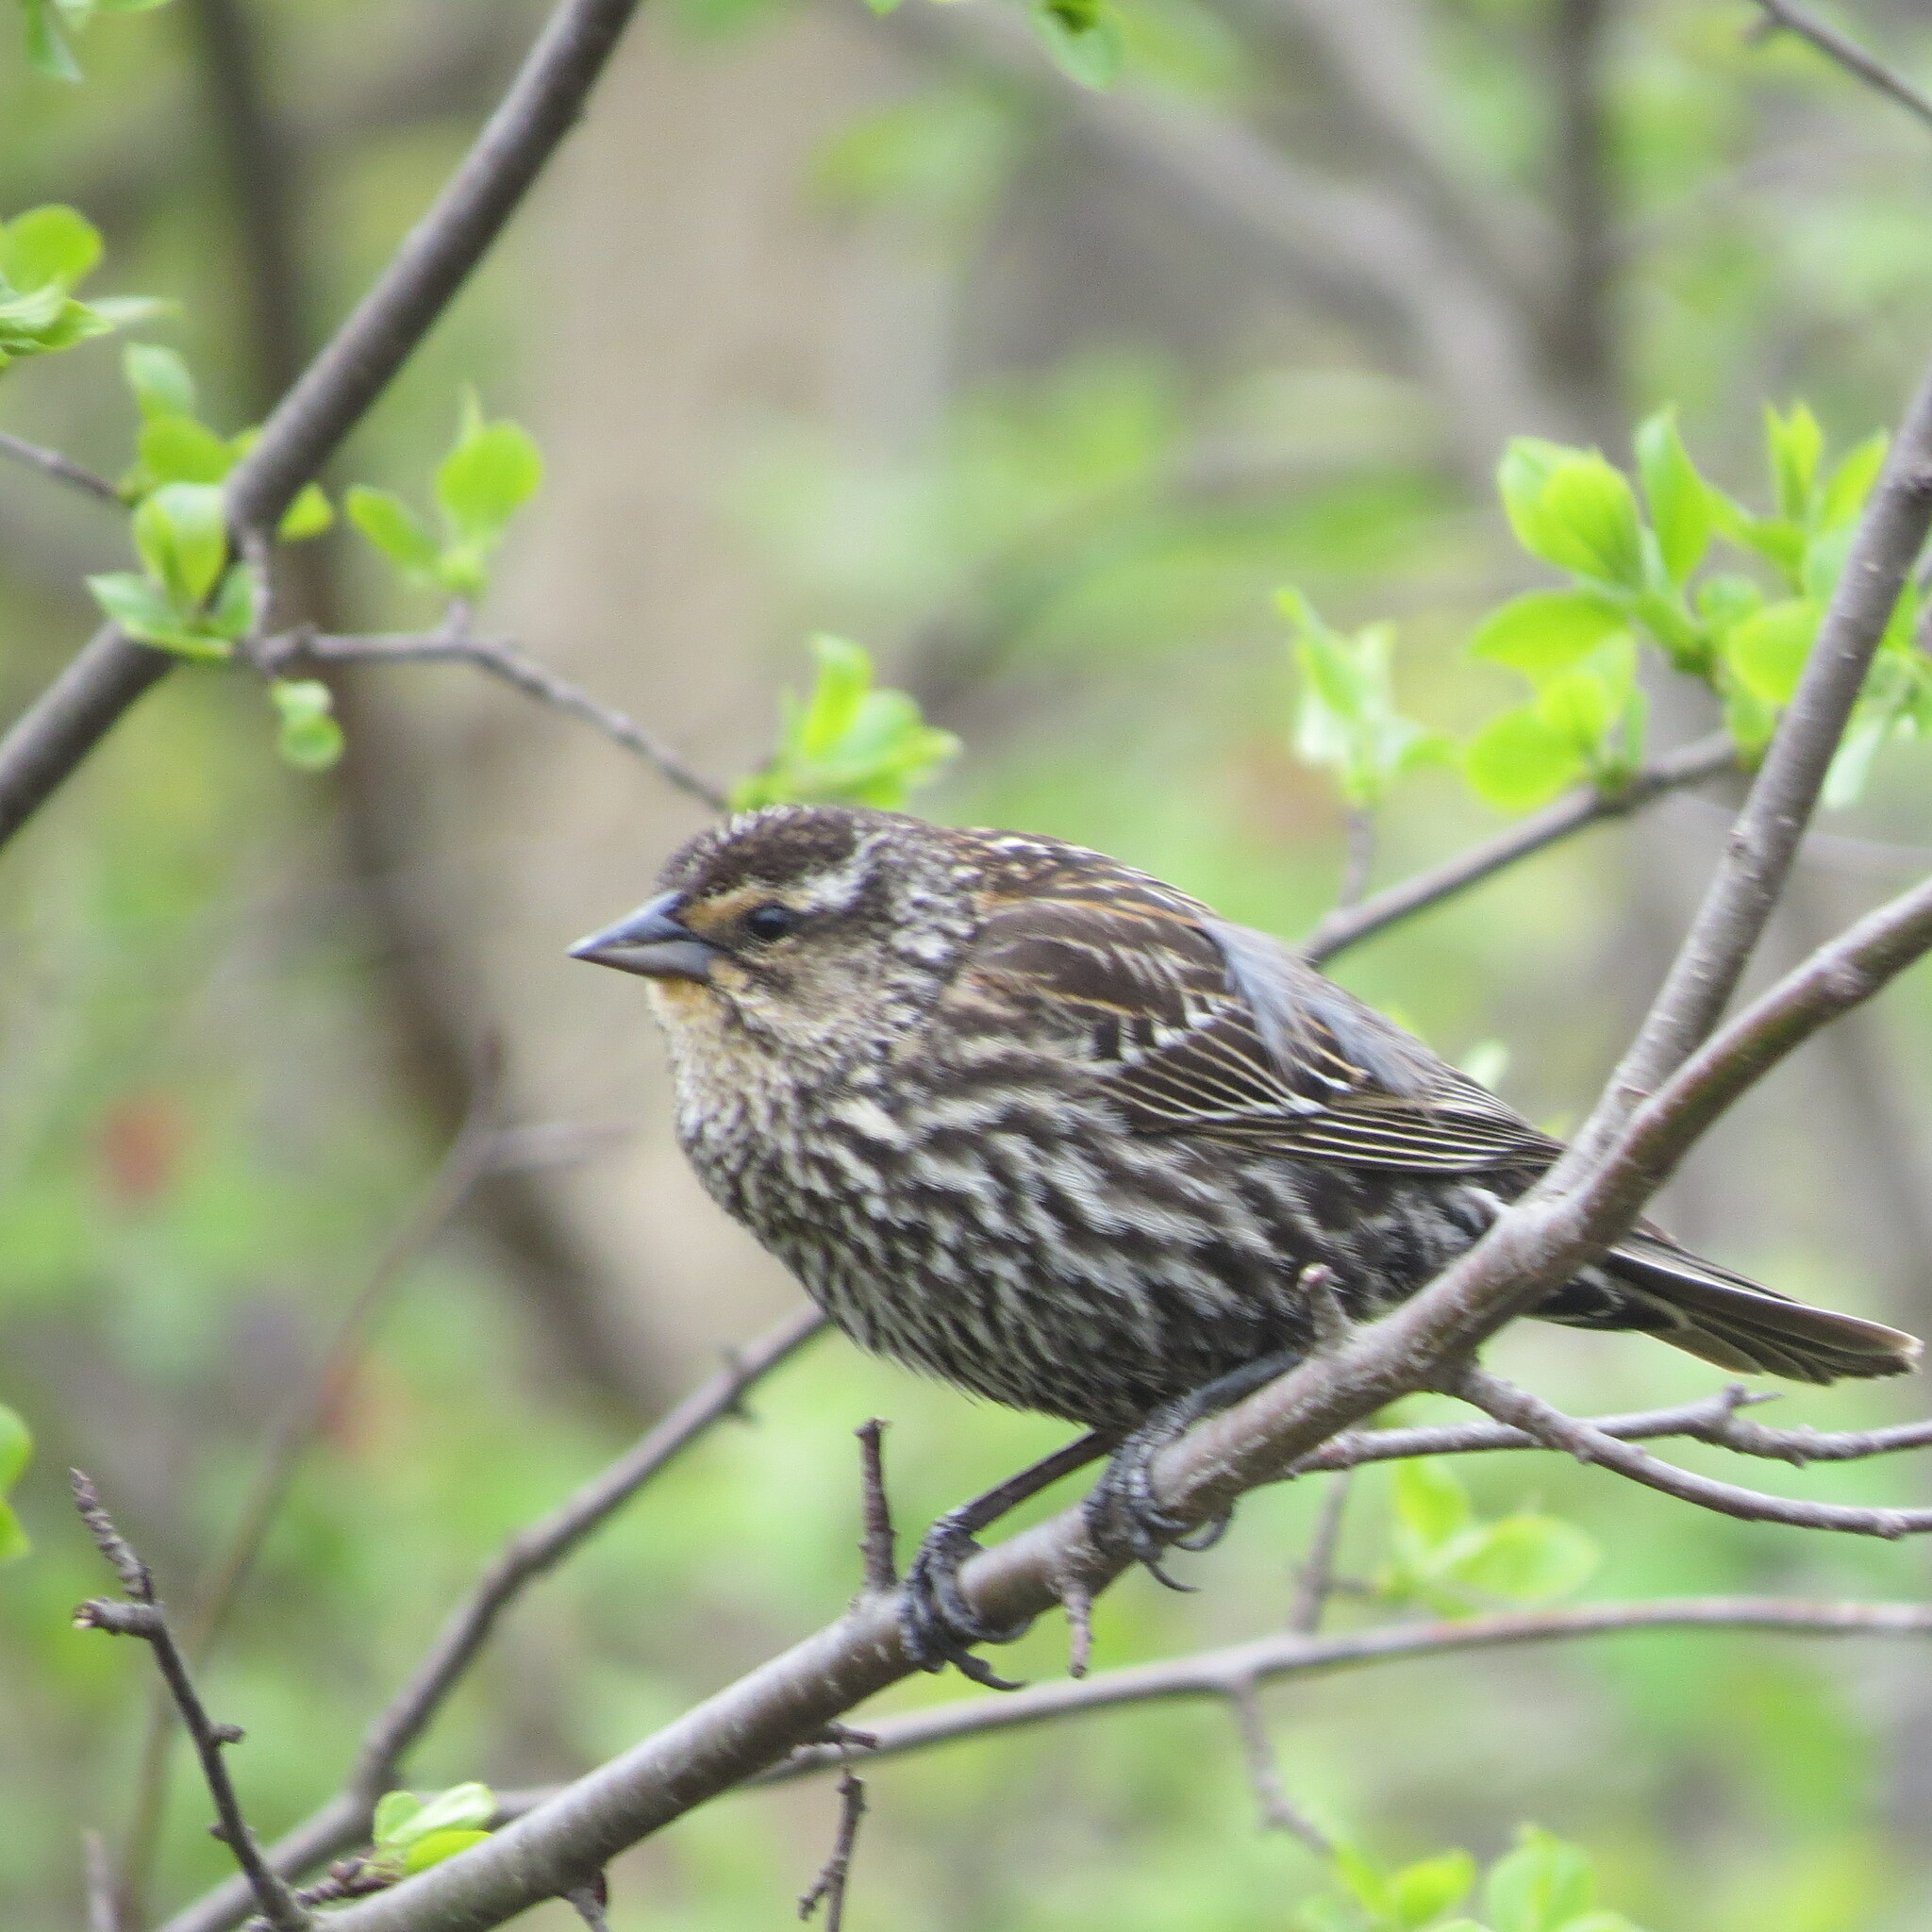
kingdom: Animalia
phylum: Chordata
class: Aves
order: Passeriformes
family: Icteridae
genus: Agelaius
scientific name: Agelaius phoeniceus
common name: Red-winged blackbird
